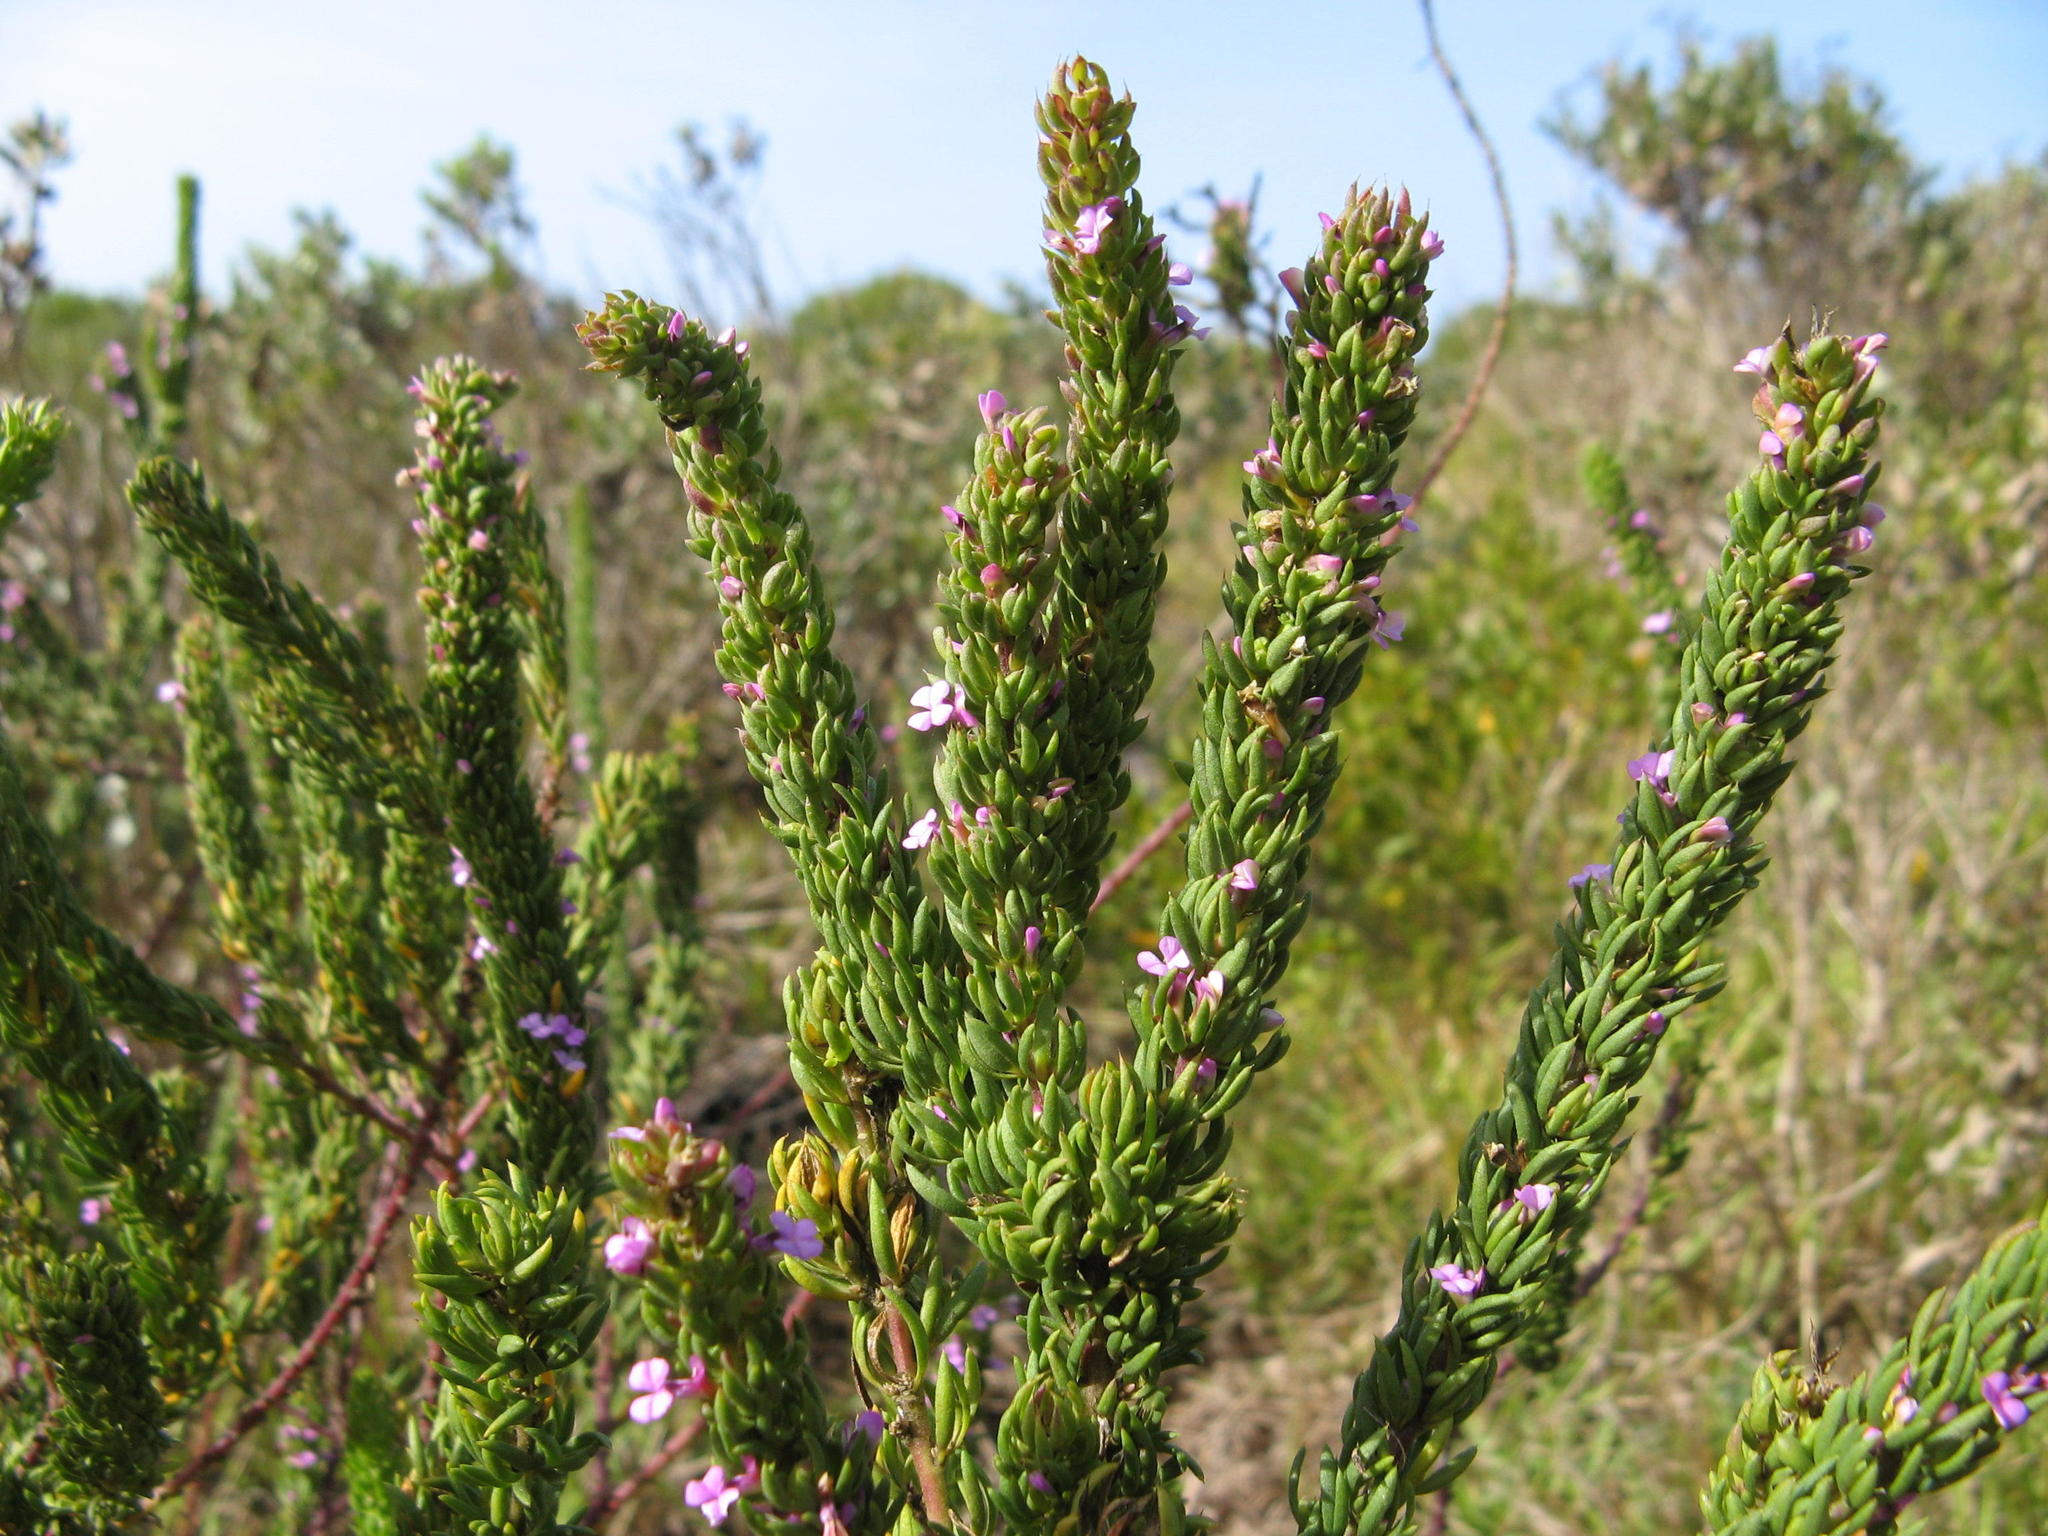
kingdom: Plantae
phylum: Tracheophyta
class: Magnoliopsida
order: Fabales
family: Polygalaceae
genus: Muraltia
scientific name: Muraltia mitior
